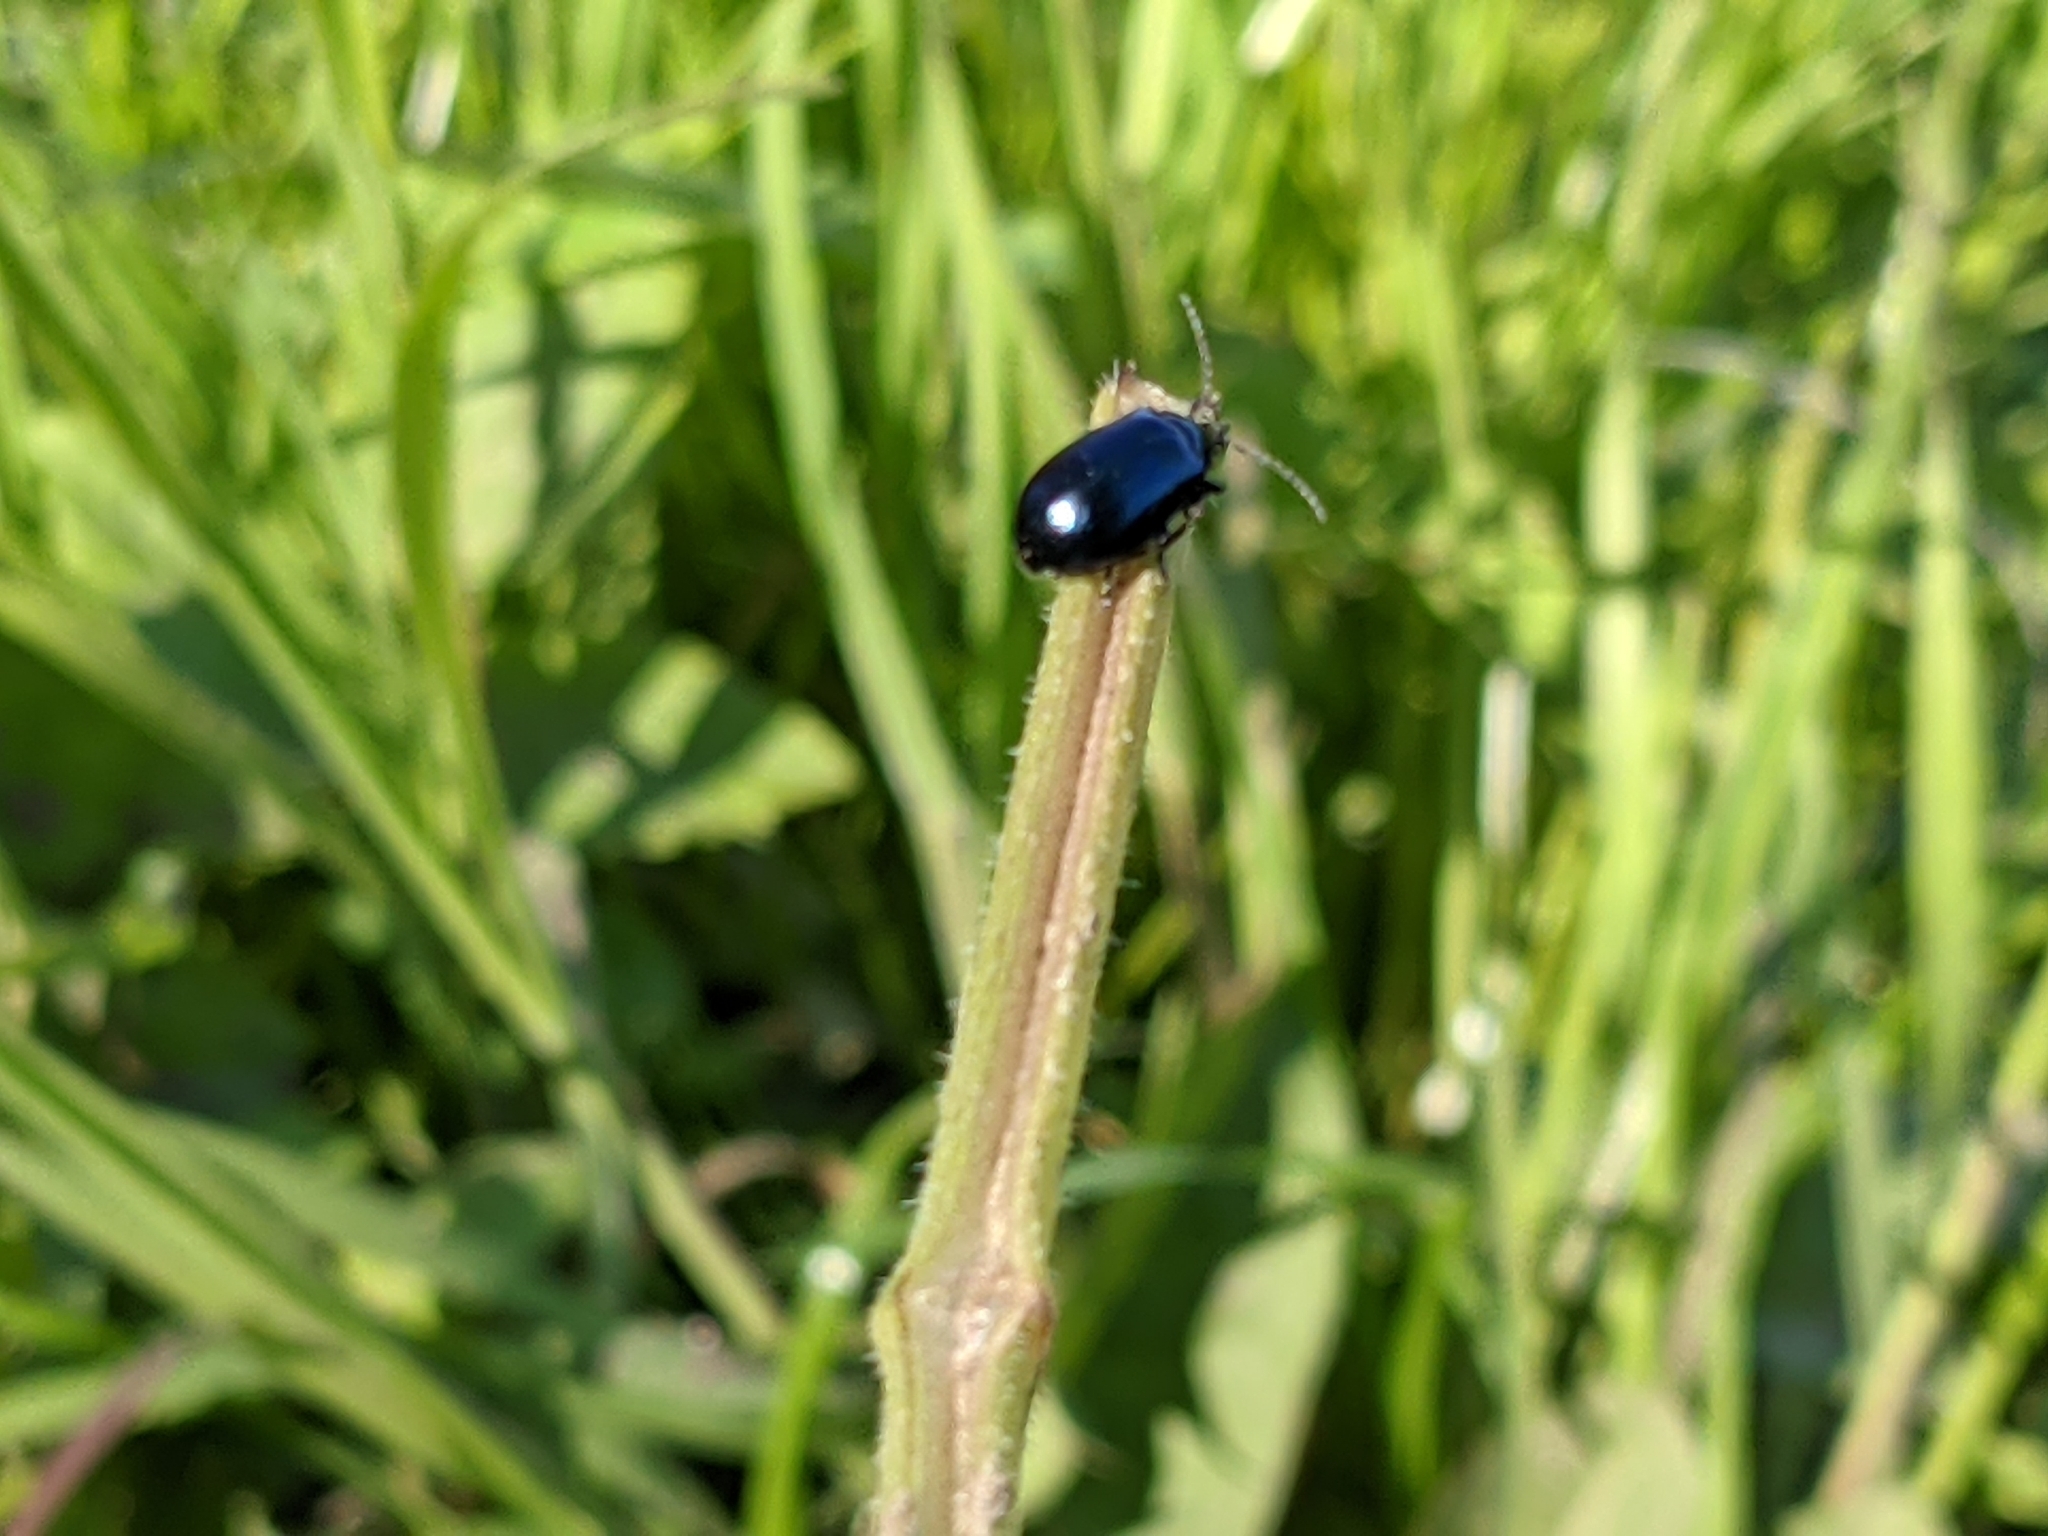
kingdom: Animalia
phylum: Arthropoda
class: Insecta
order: Coleoptera
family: Chrysomelidae
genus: Agelastica
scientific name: Agelastica alni
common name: Alder leaf beetle
